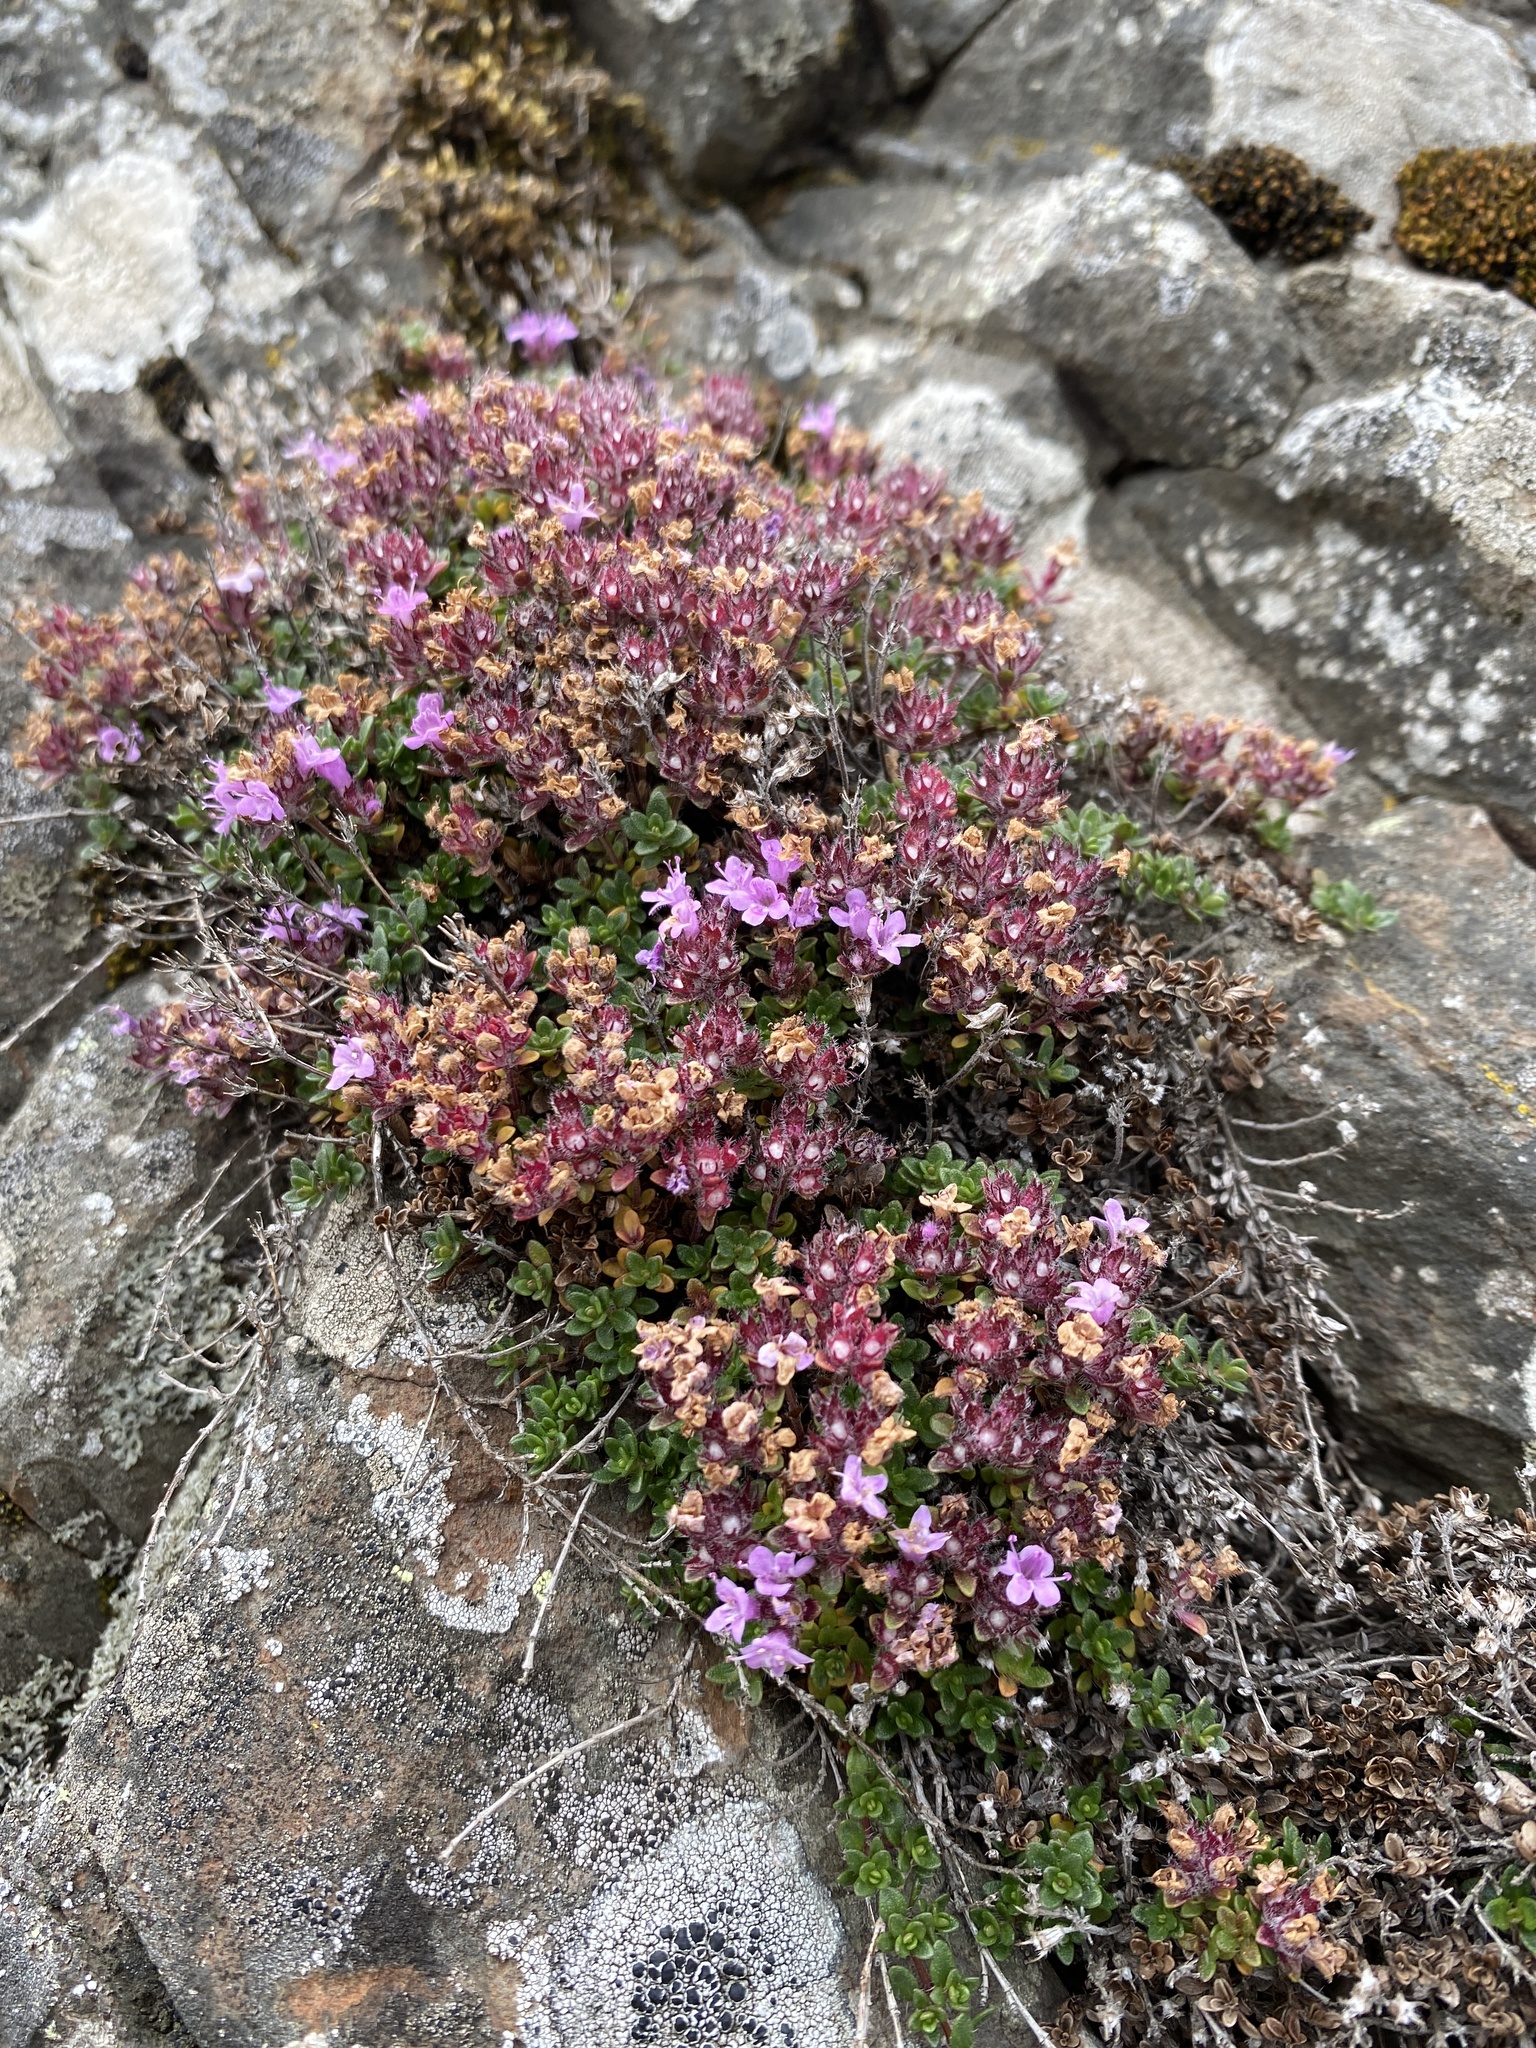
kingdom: Plantae
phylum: Tracheophyta
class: Magnoliopsida
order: Lamiales
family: Lamiaceae
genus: Thymus
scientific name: Thymus praecox
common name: Wild thyme
